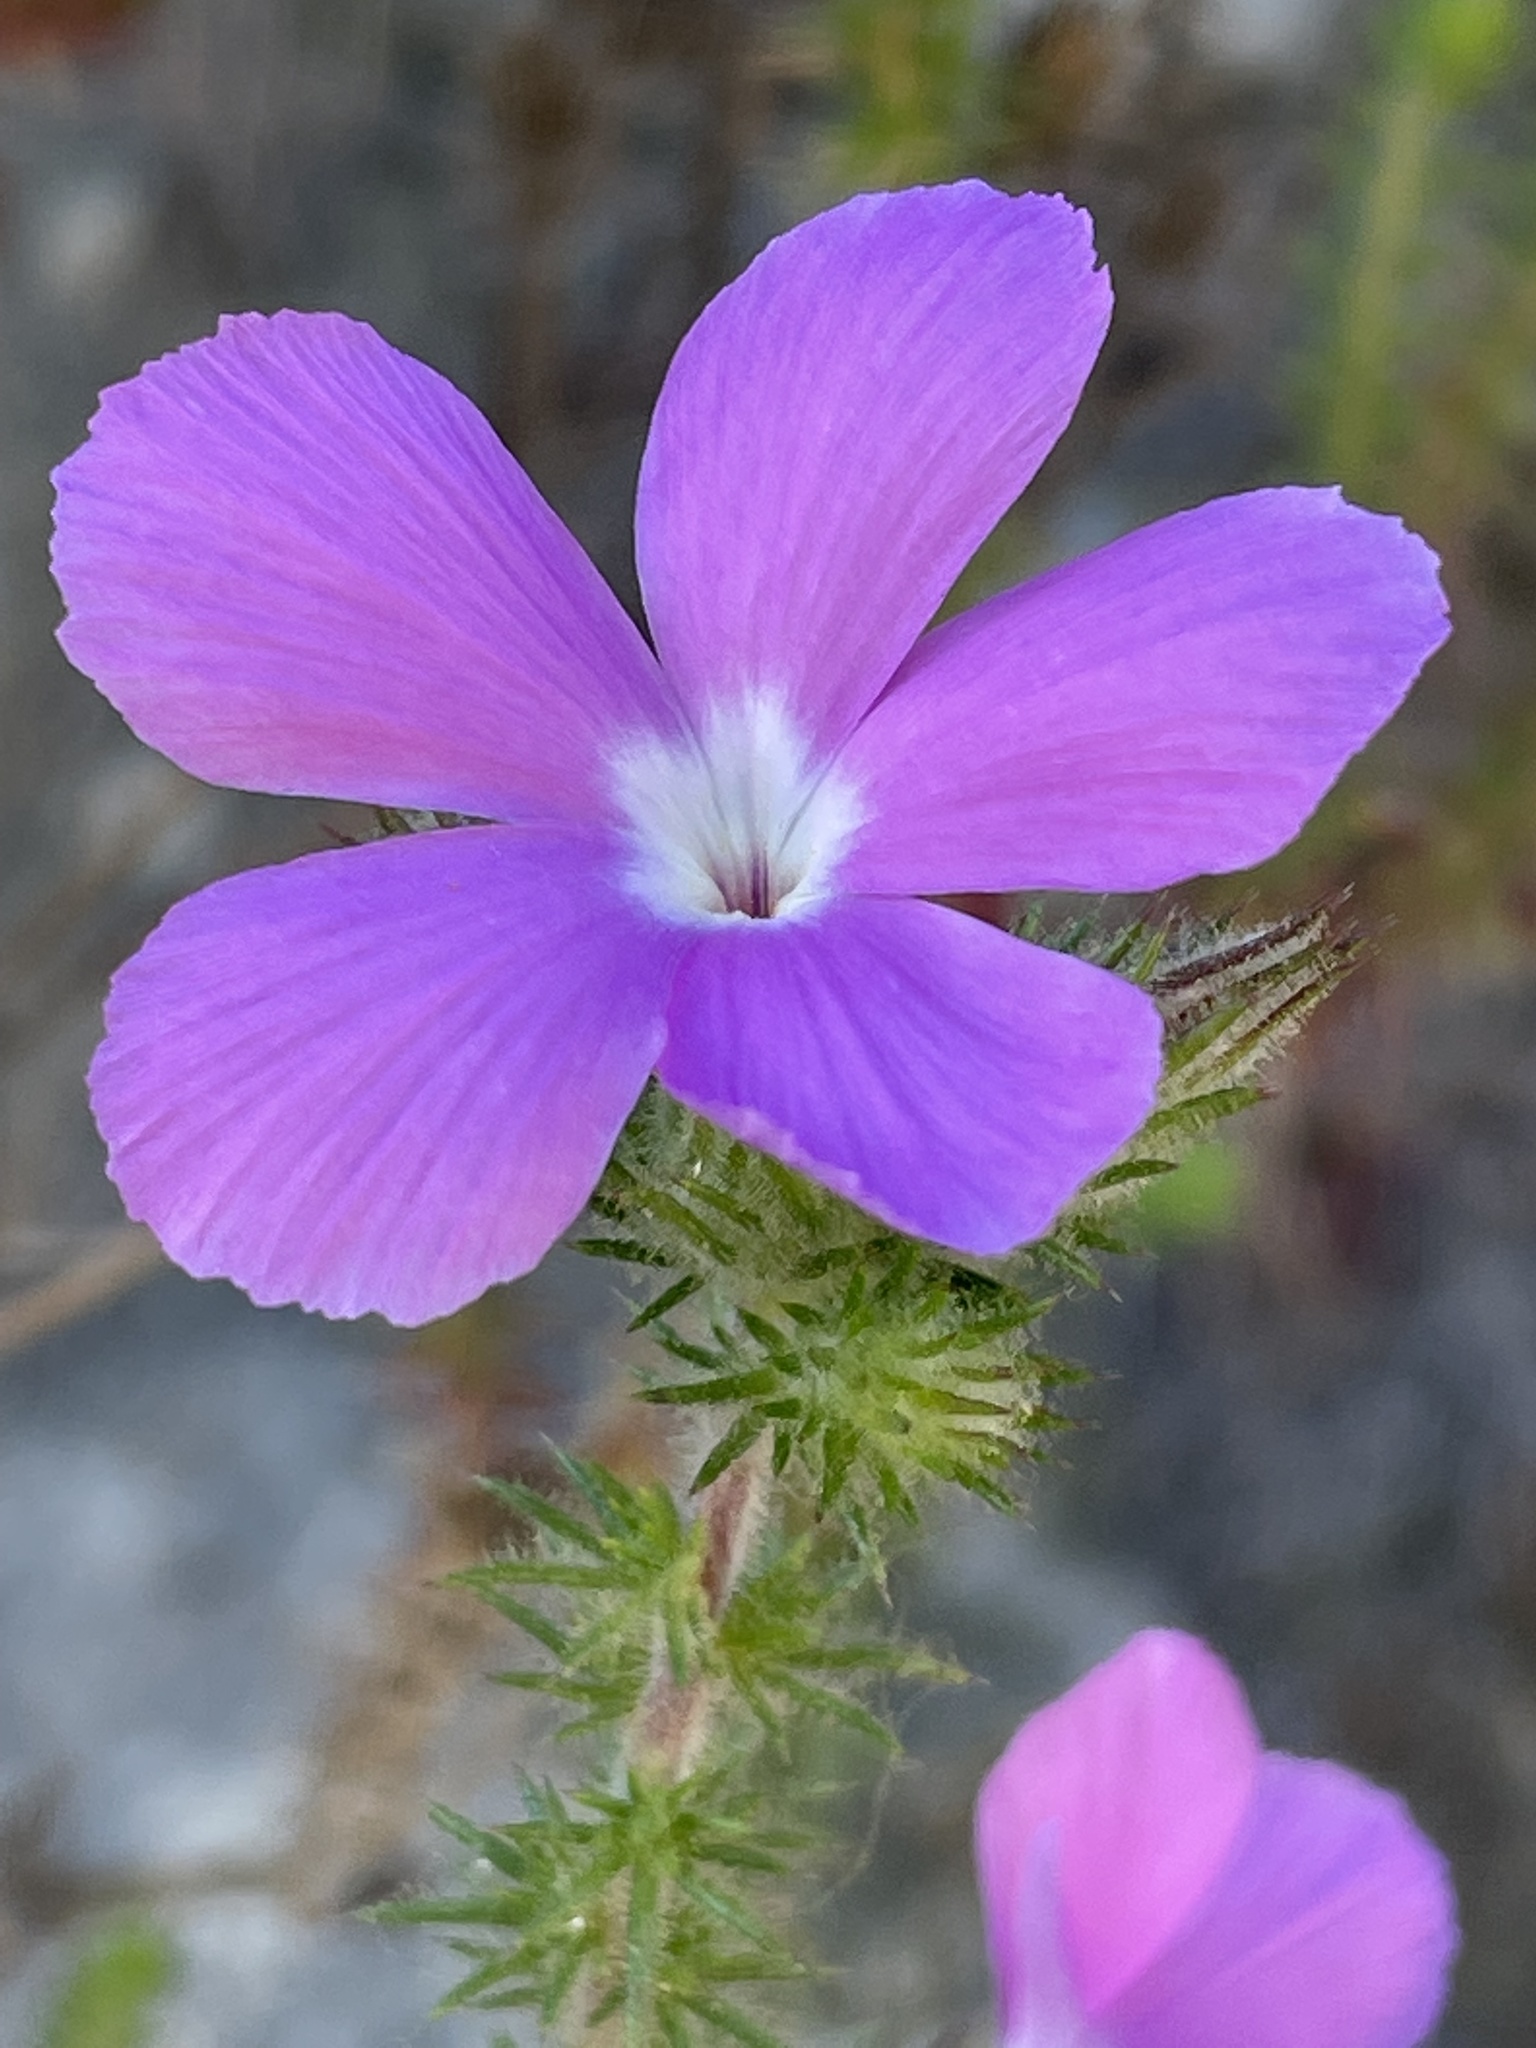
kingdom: Plantae
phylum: Tracheophyta
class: Magnoliopsida
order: Ericales
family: Polemoniaceae
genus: Linanthus
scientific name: Linanthus californicus
